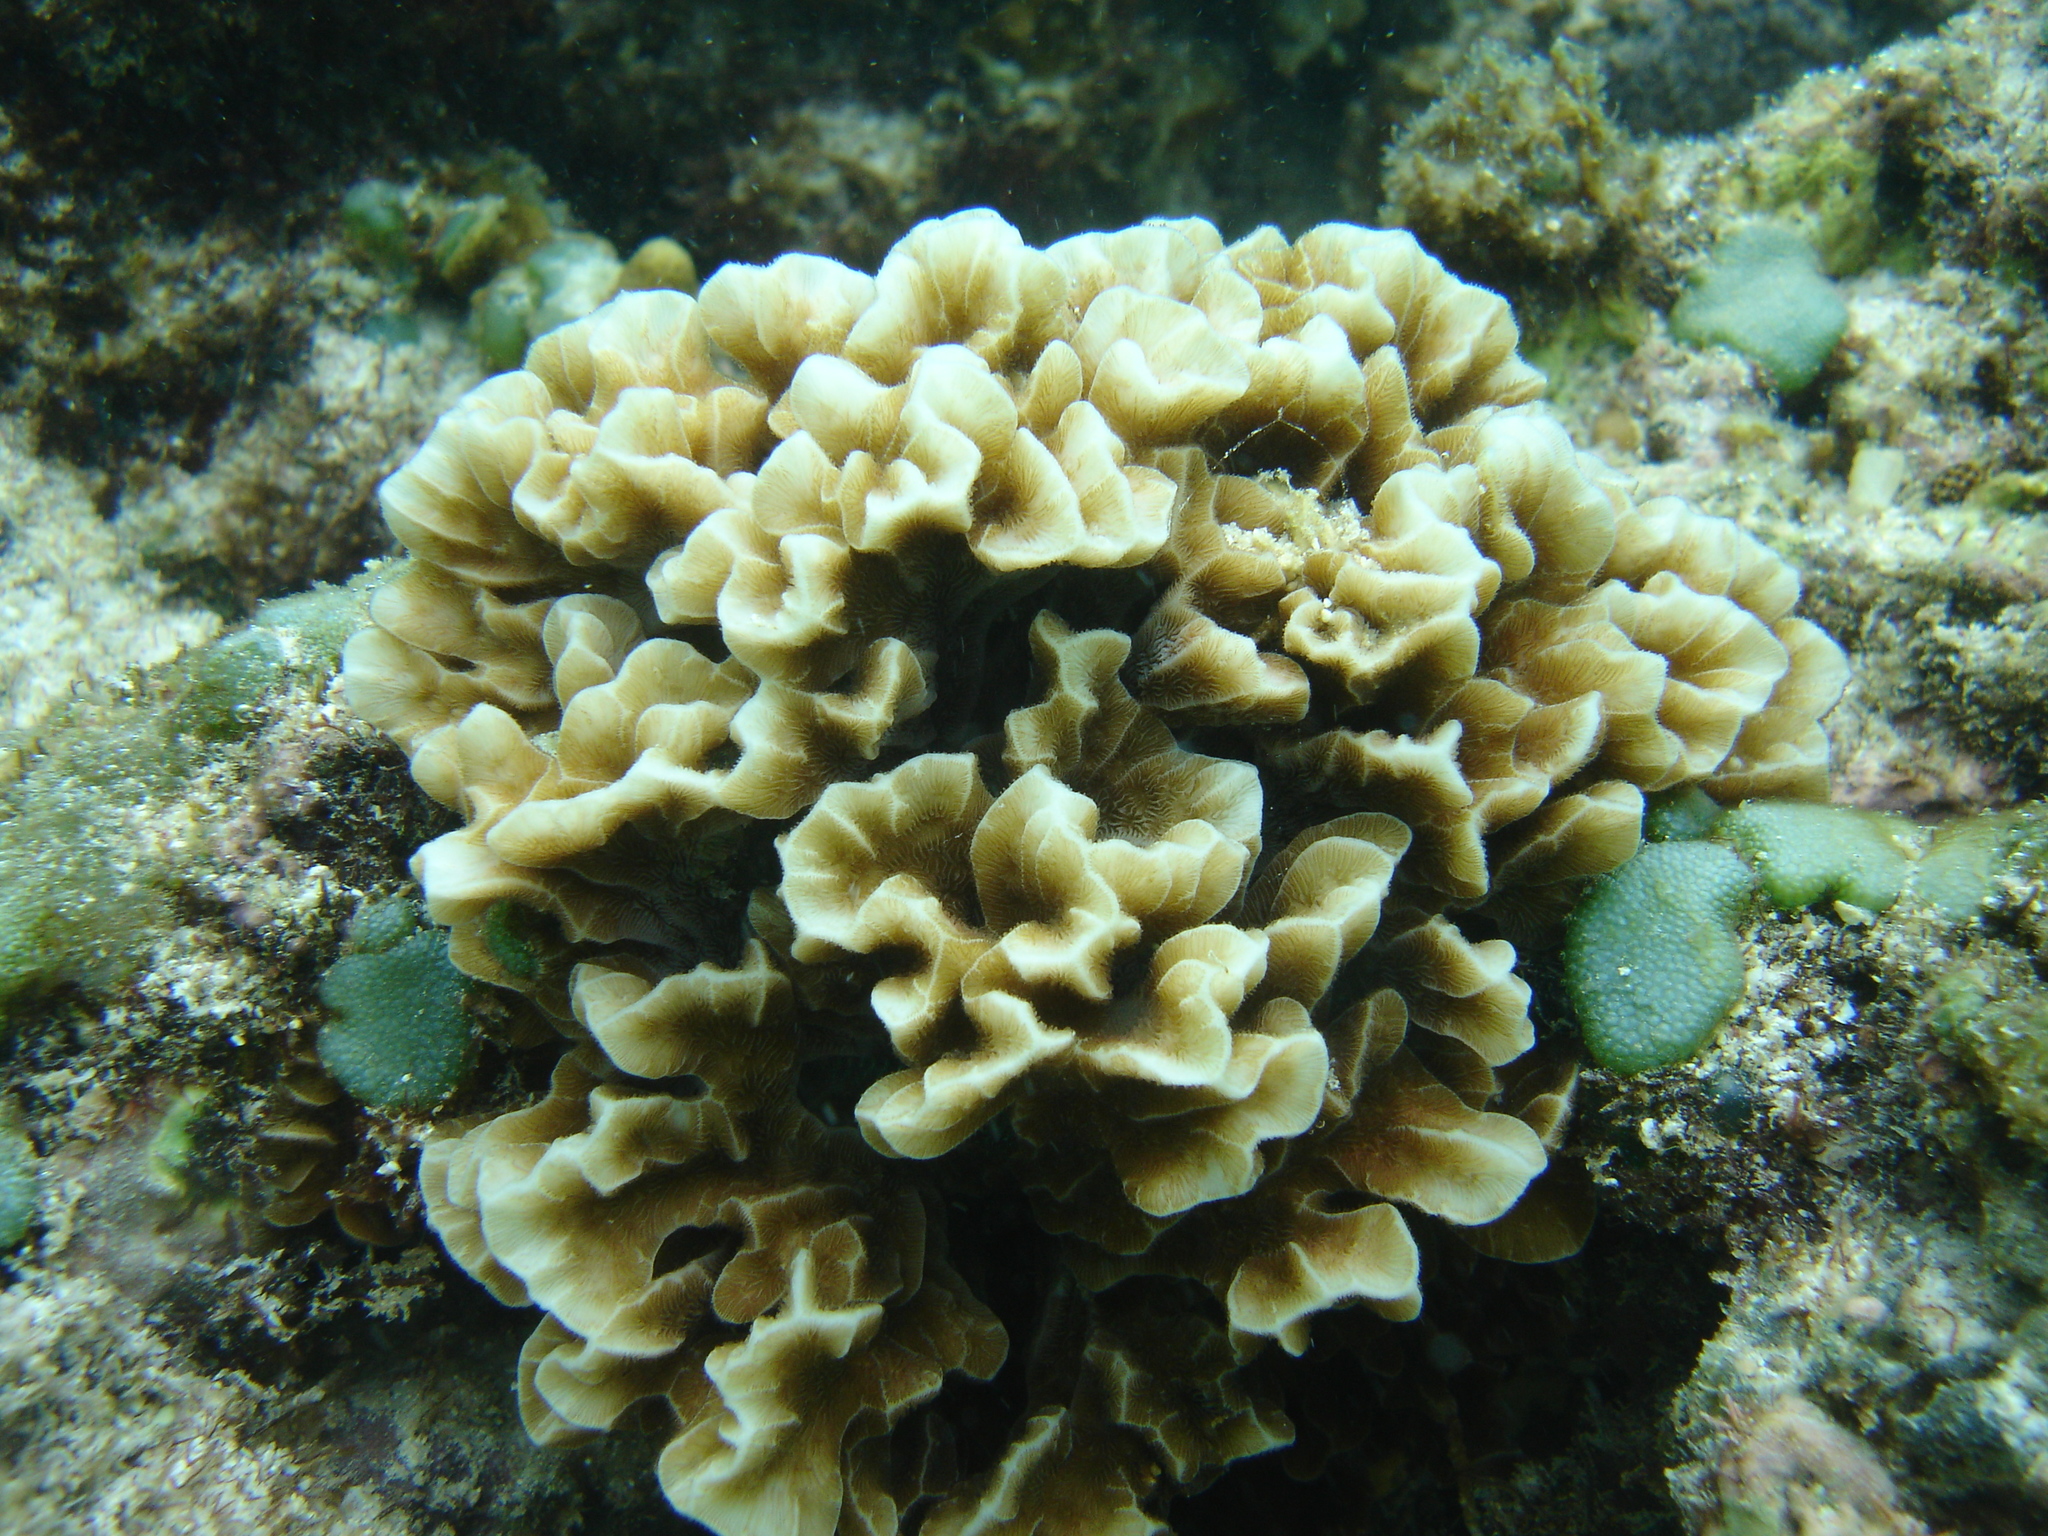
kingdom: Animalia
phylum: Cnidaria
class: Anthozoa
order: Scleractinia
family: Agariciidae
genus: Pavona
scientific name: Pavona frondifera
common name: Leaf coral
